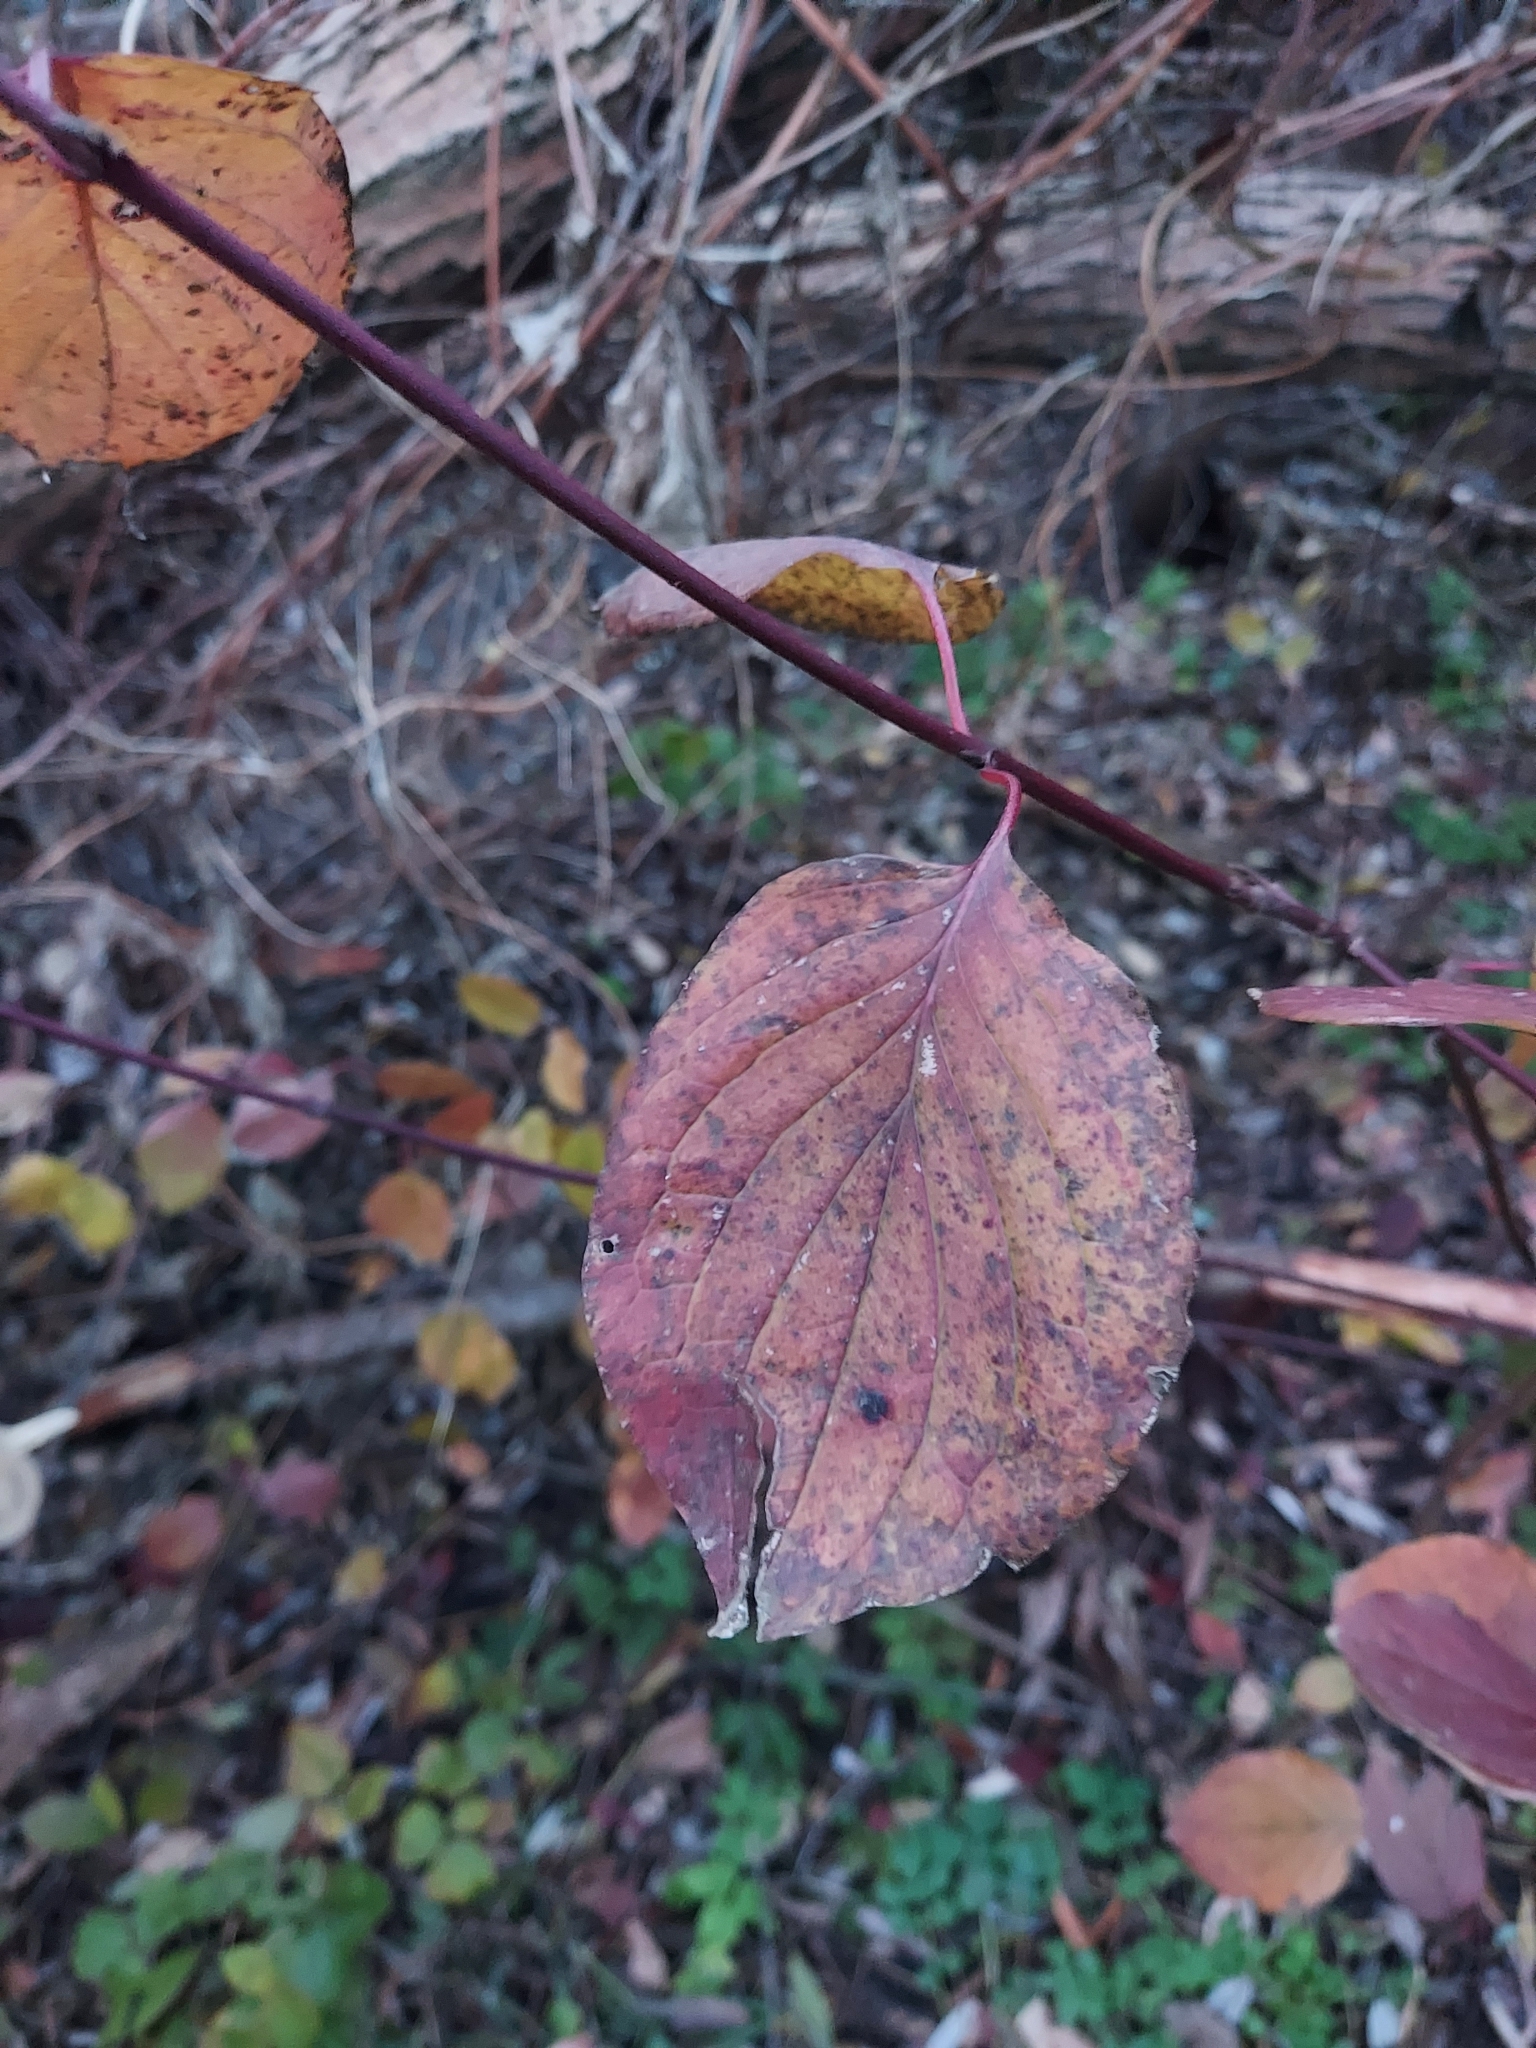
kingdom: Plantae
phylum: Tracheophyta
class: Magnoliopsida
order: Cornales
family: Cornaceae
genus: Cornus
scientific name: Cornus sanguinea
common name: Dogwood
